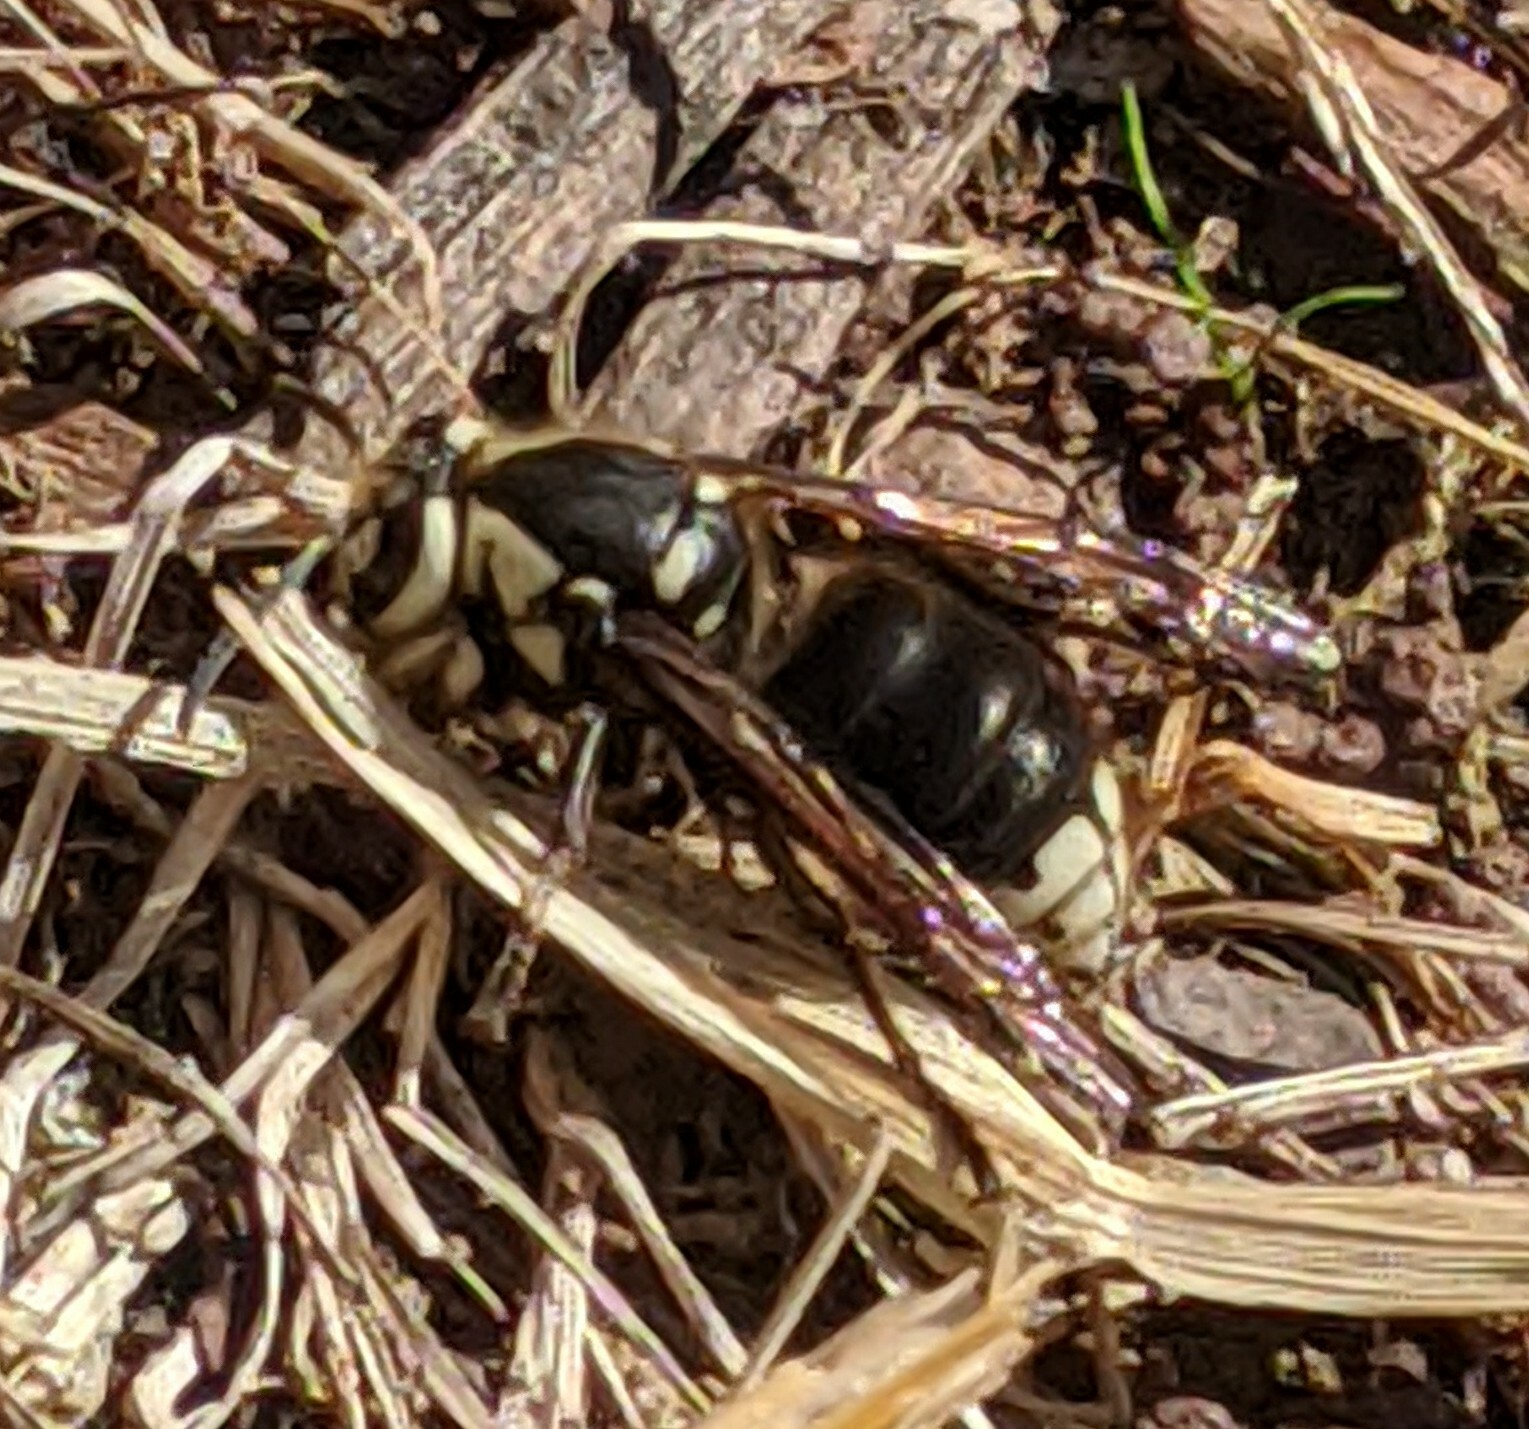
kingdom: Animalia
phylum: Arthropoda
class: Insecta
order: Hymenoptera
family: Vespidae
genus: Dolichovespula
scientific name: Dolichovespula maculata
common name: Bald-faced hornet
